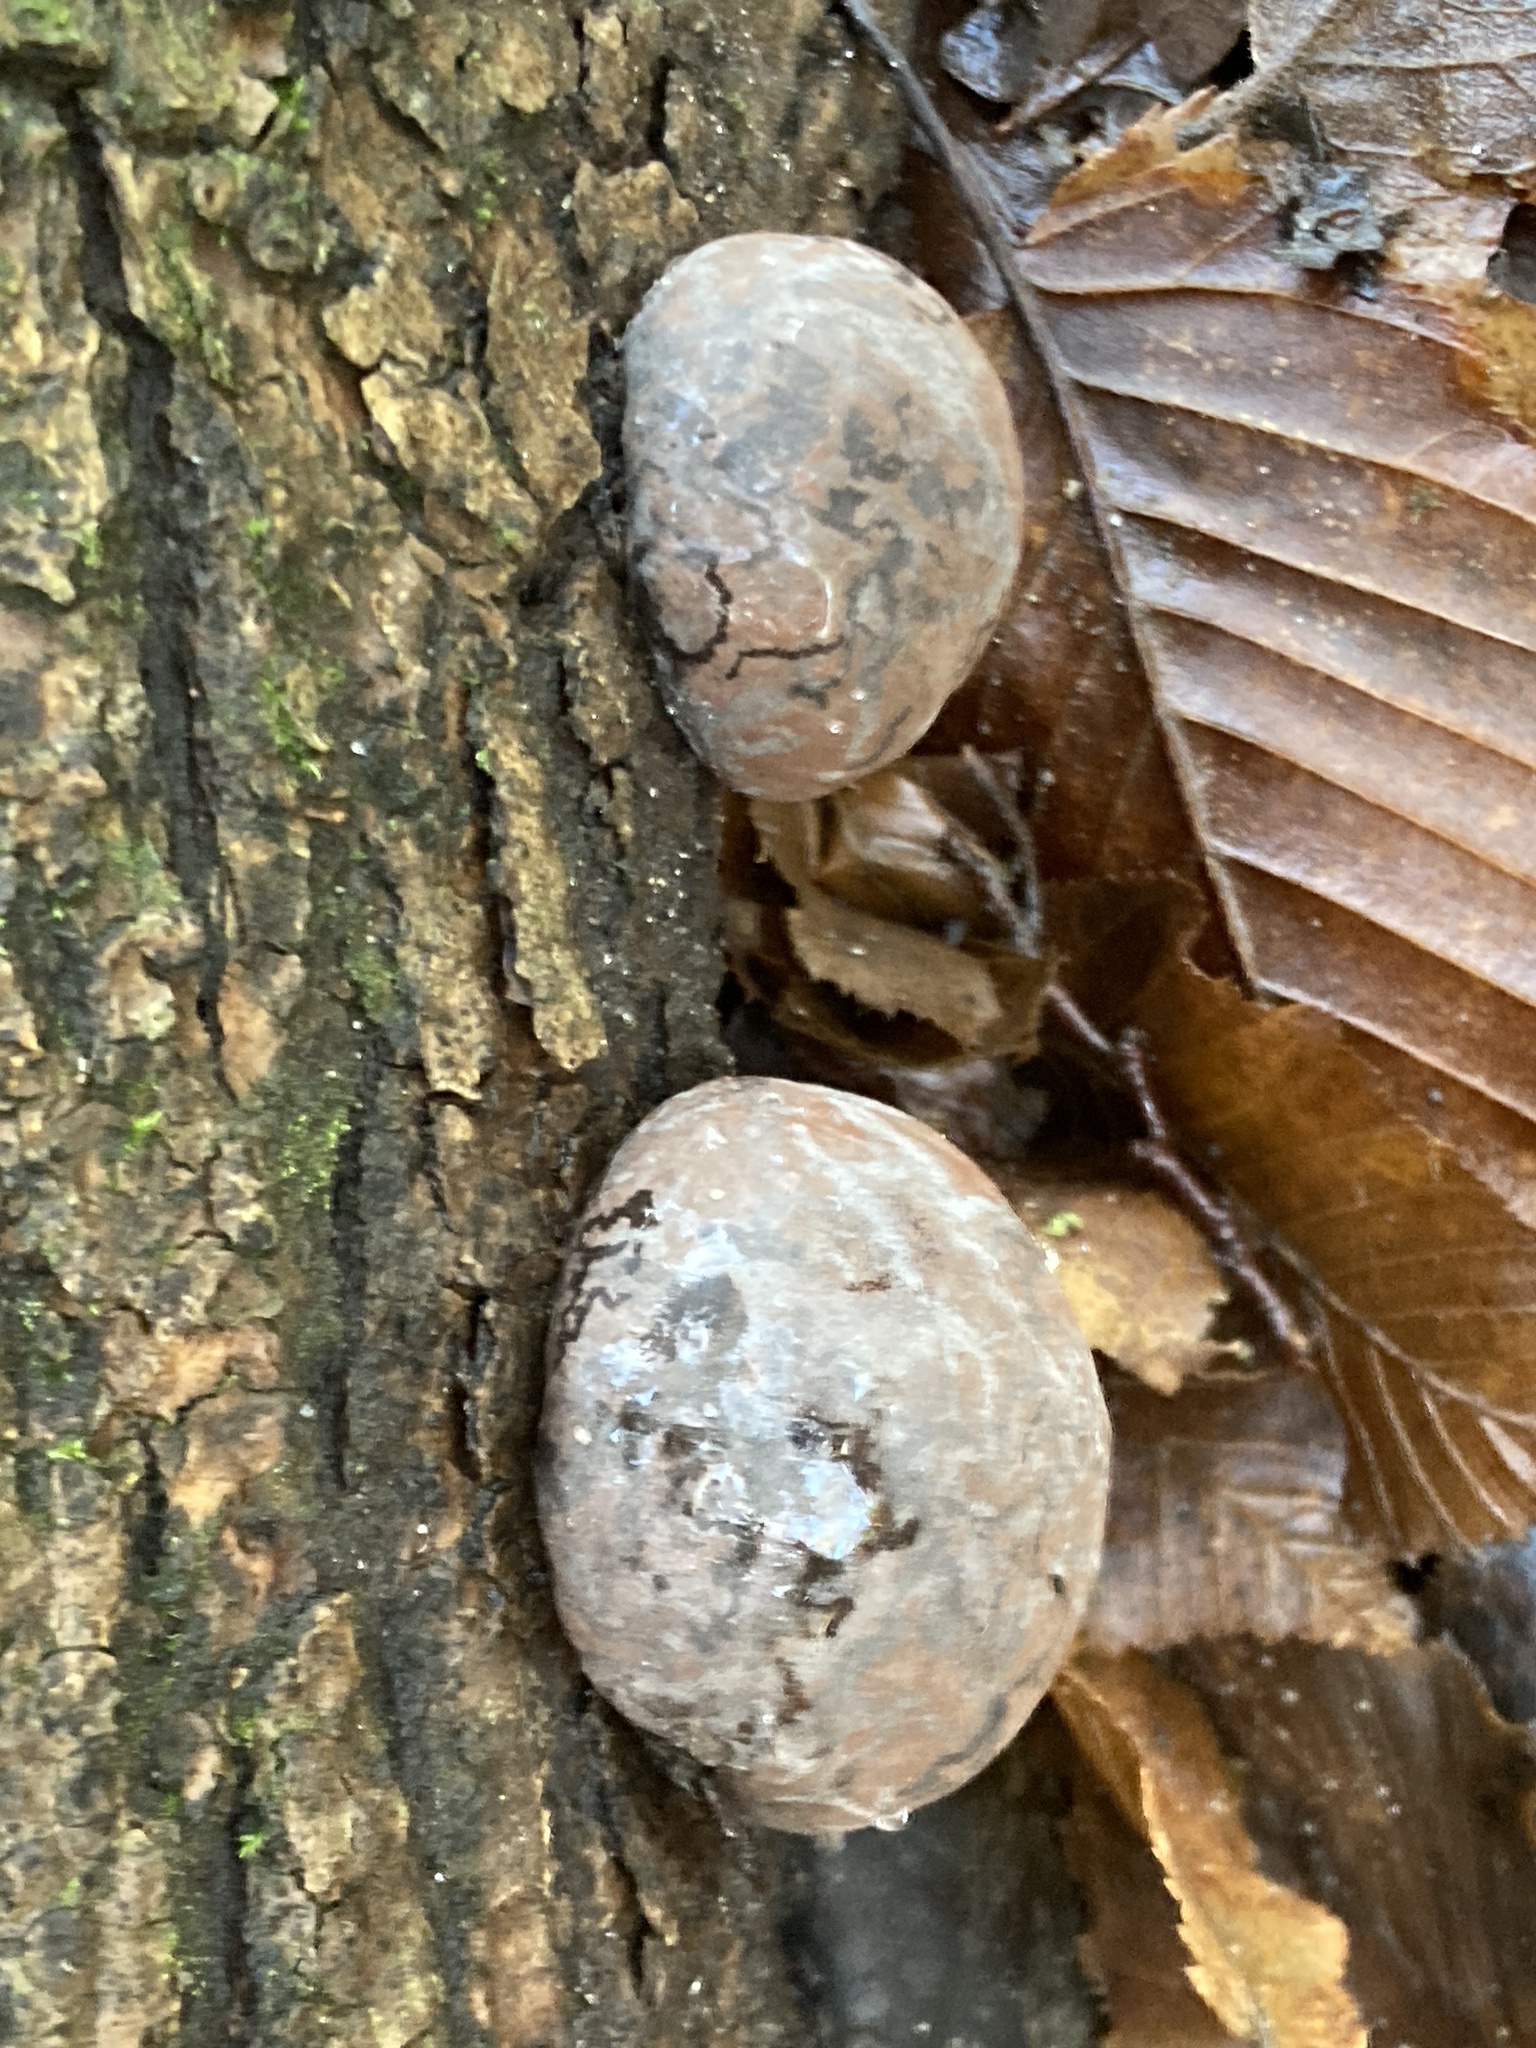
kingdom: Fungi
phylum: Ascomycota
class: Sordariomycetes
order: Xylariales
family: Hypoxylaceae
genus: Daldinia
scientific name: Daldinia concentrica
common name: Cramp balls
